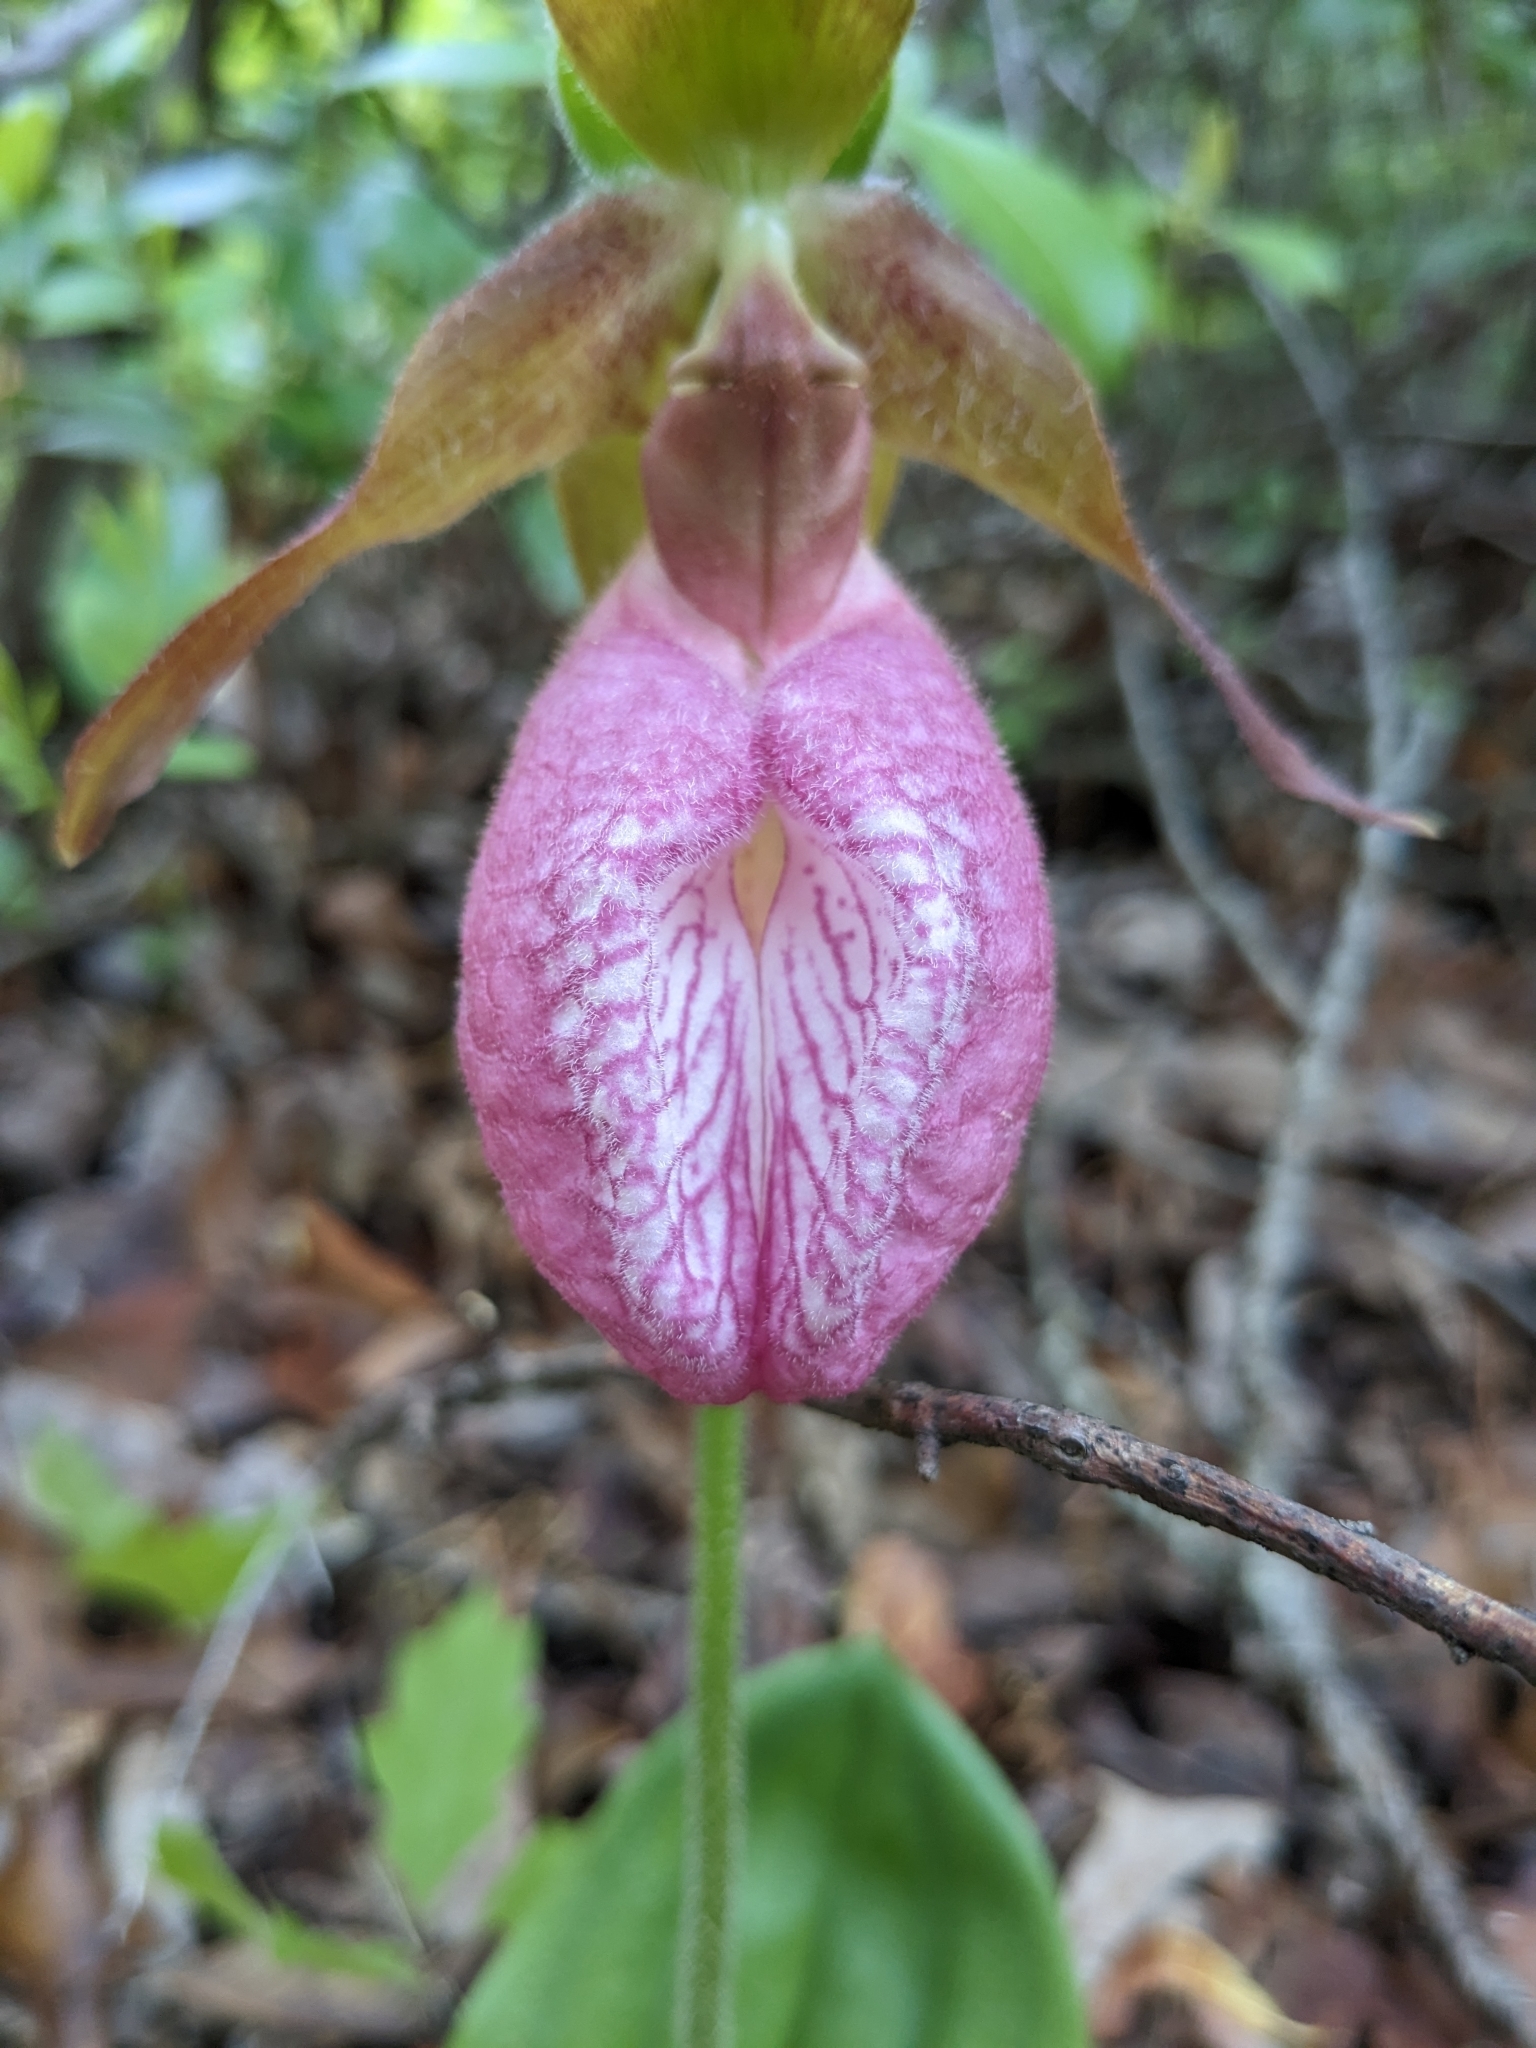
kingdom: Plantae
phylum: Tracheophyta
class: Liliopsida
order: Asparagales
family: Orchidaceae
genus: Cypripedium
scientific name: Cypripedium acaule
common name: Pink lady's-slipper
